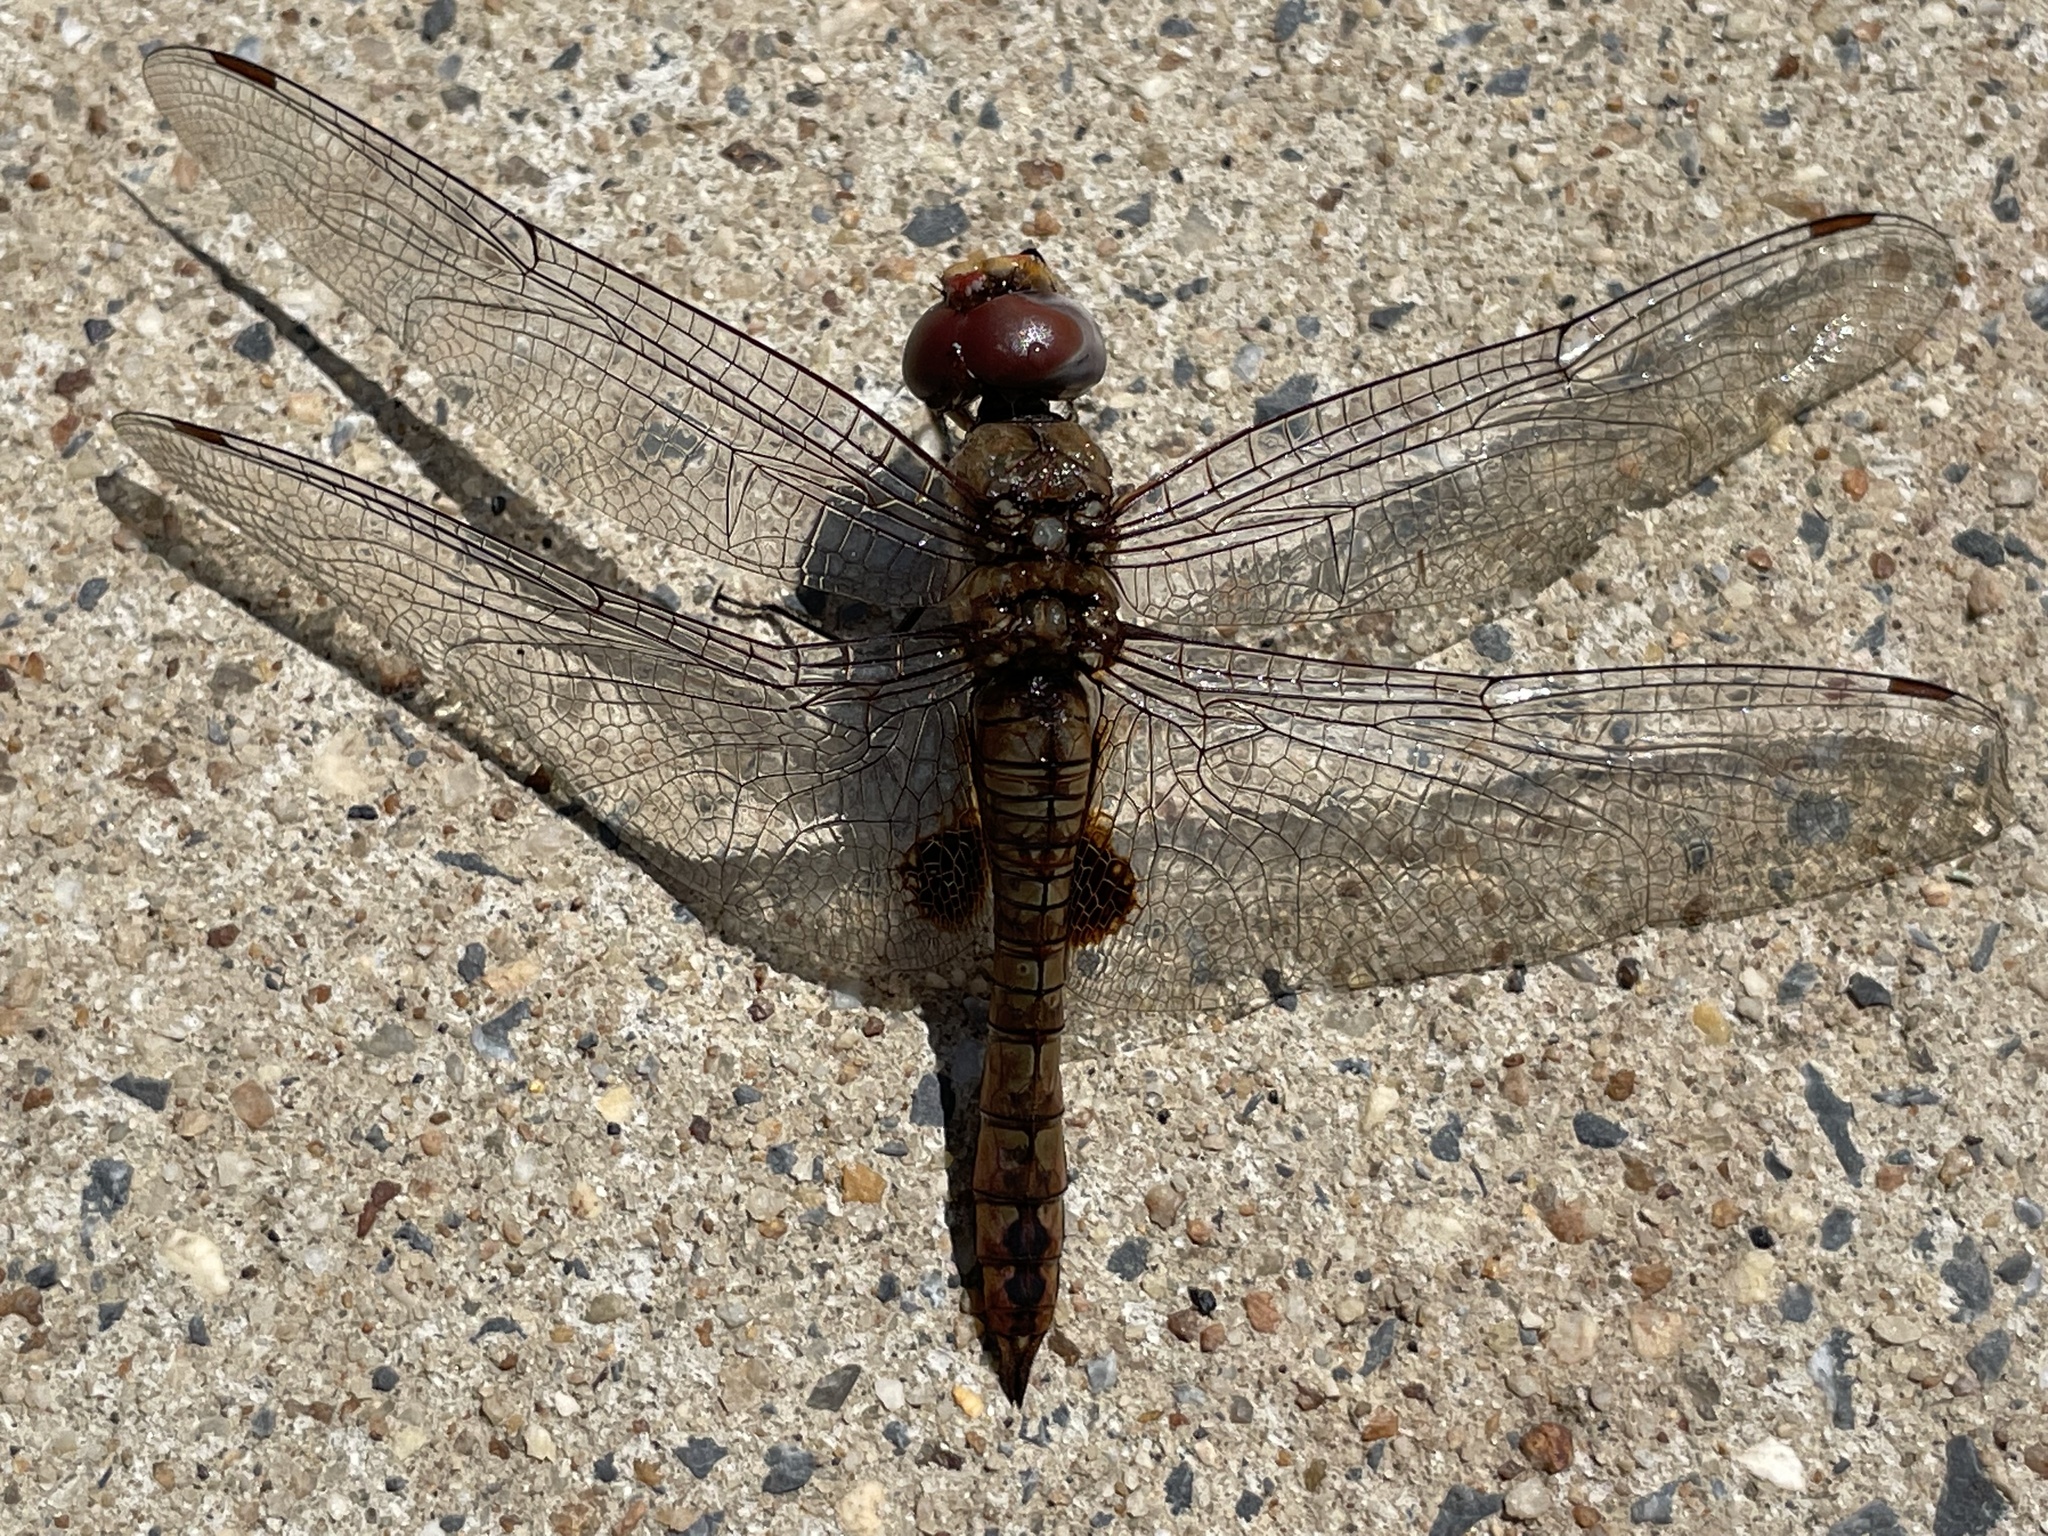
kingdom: Animalia
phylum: Arthropoda
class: Insecta
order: Odonata
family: Libellulidae
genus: Pantala
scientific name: Pantala hymenaea
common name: Spot-winged glider
